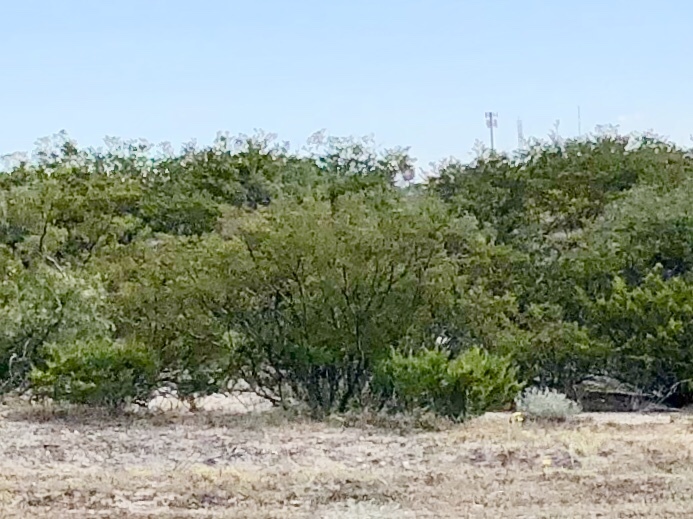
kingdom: Plantae
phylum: Tracheophyta
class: Magnoliopsida
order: Zygophyllales
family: Zygophyllaceae
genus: Larrea
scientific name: Larrea tridentata
